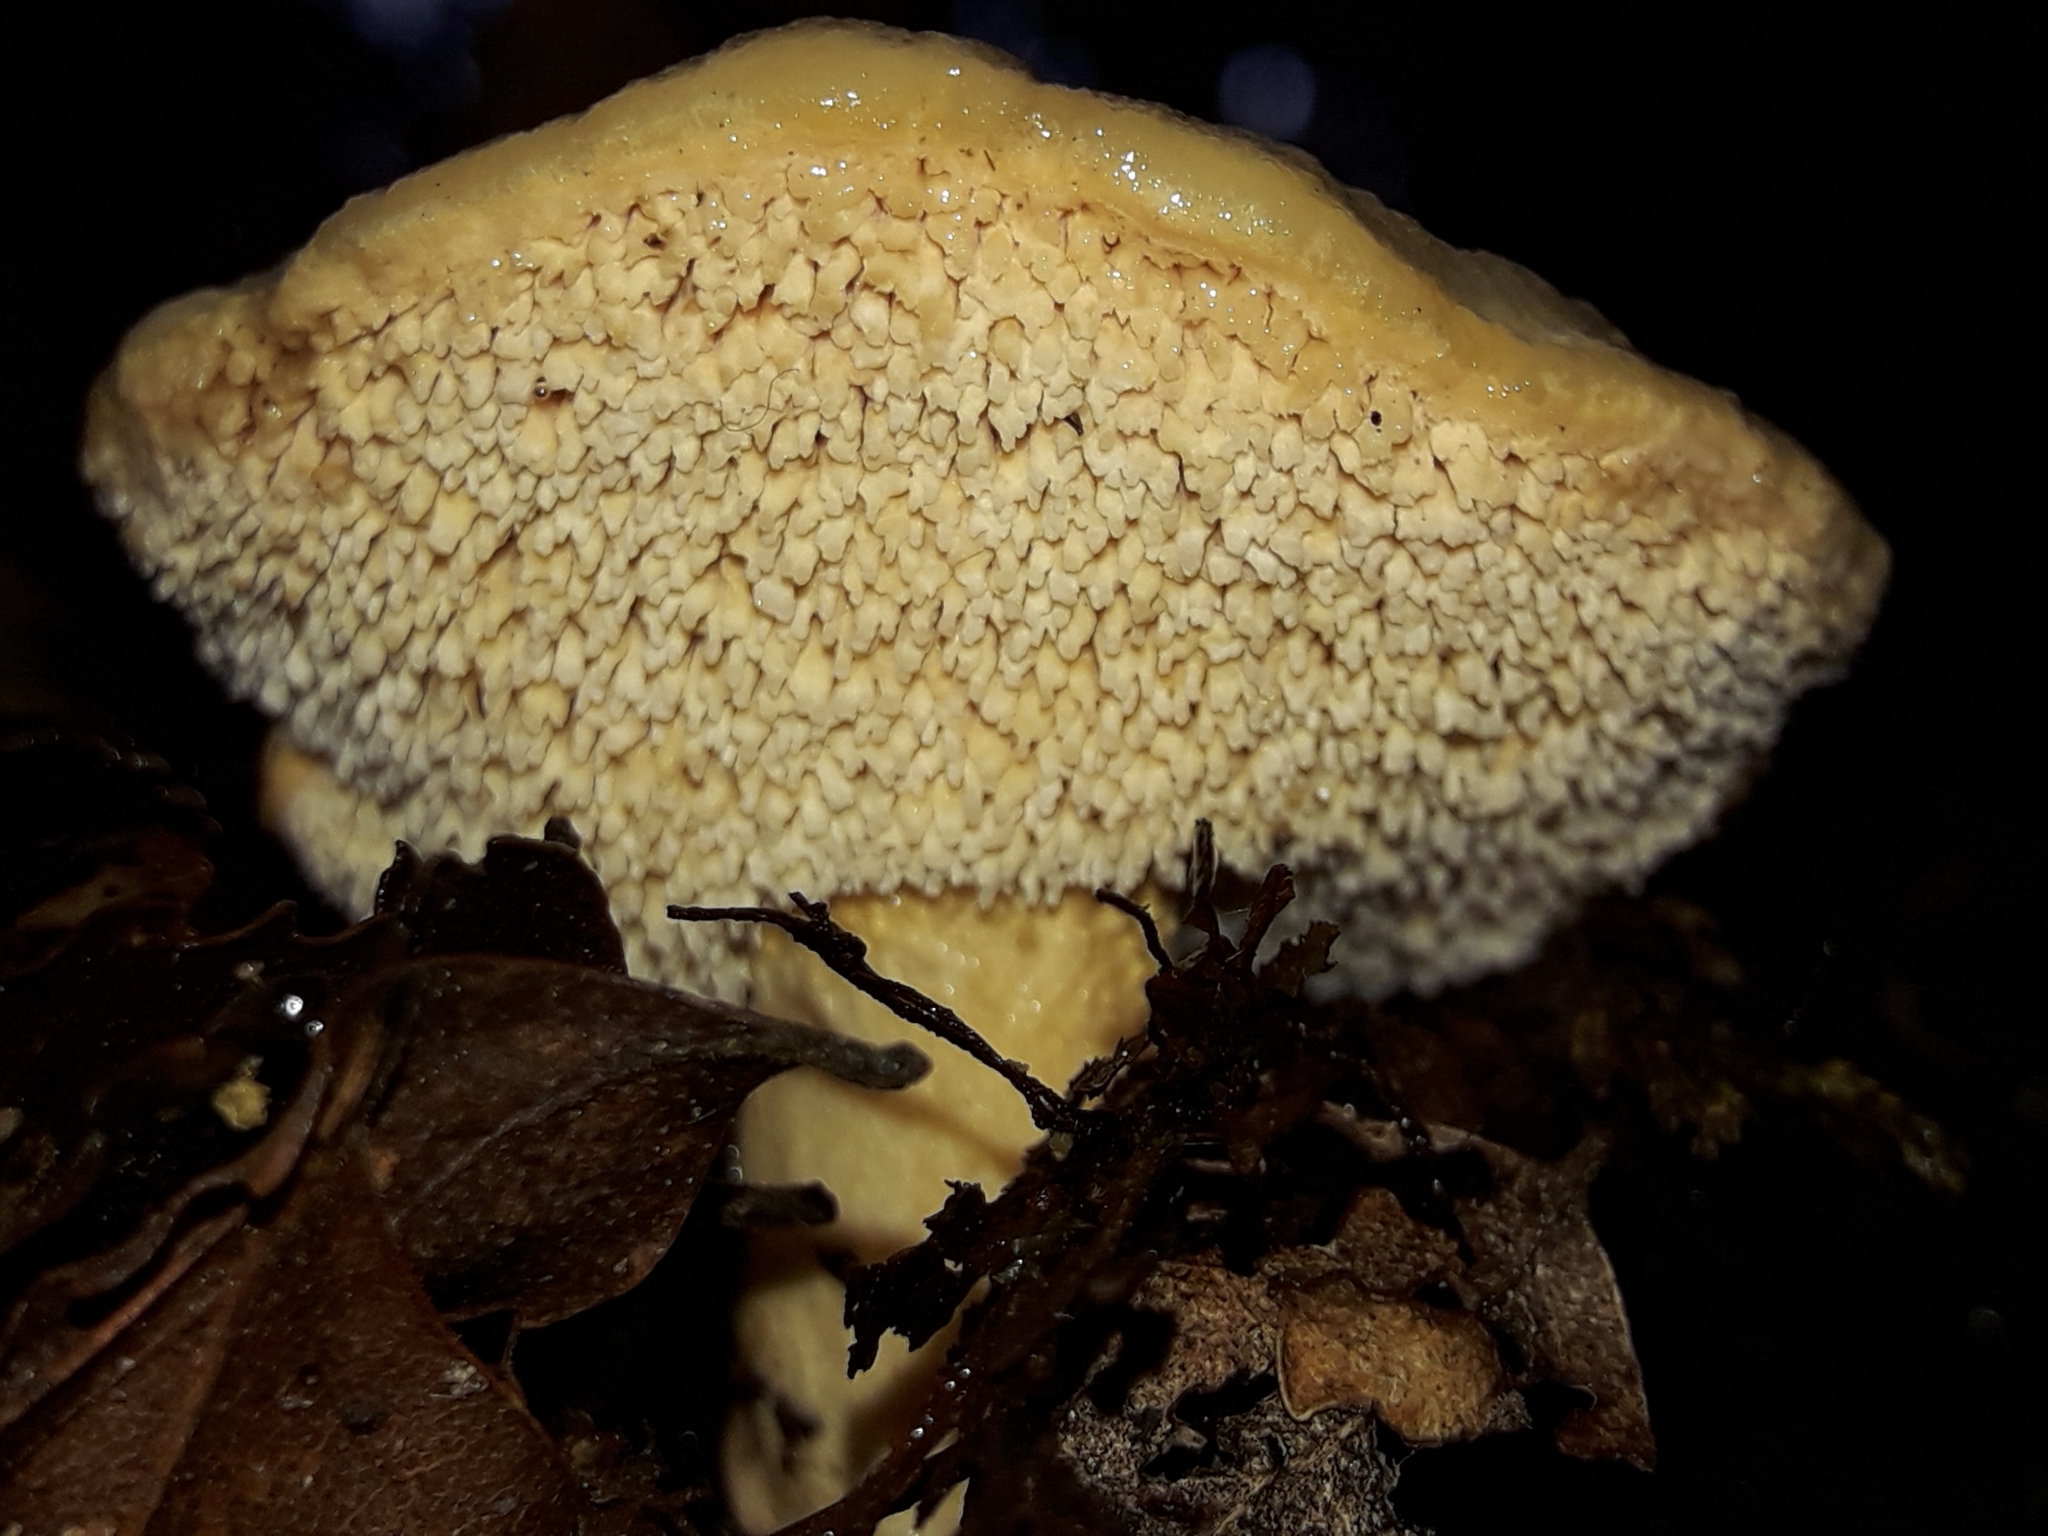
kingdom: Fungi
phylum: Basidiomycota
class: Agaricomycetes
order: Cantharellales
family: Hydnaceae
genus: Hydnum
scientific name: Hydnum ambustum
